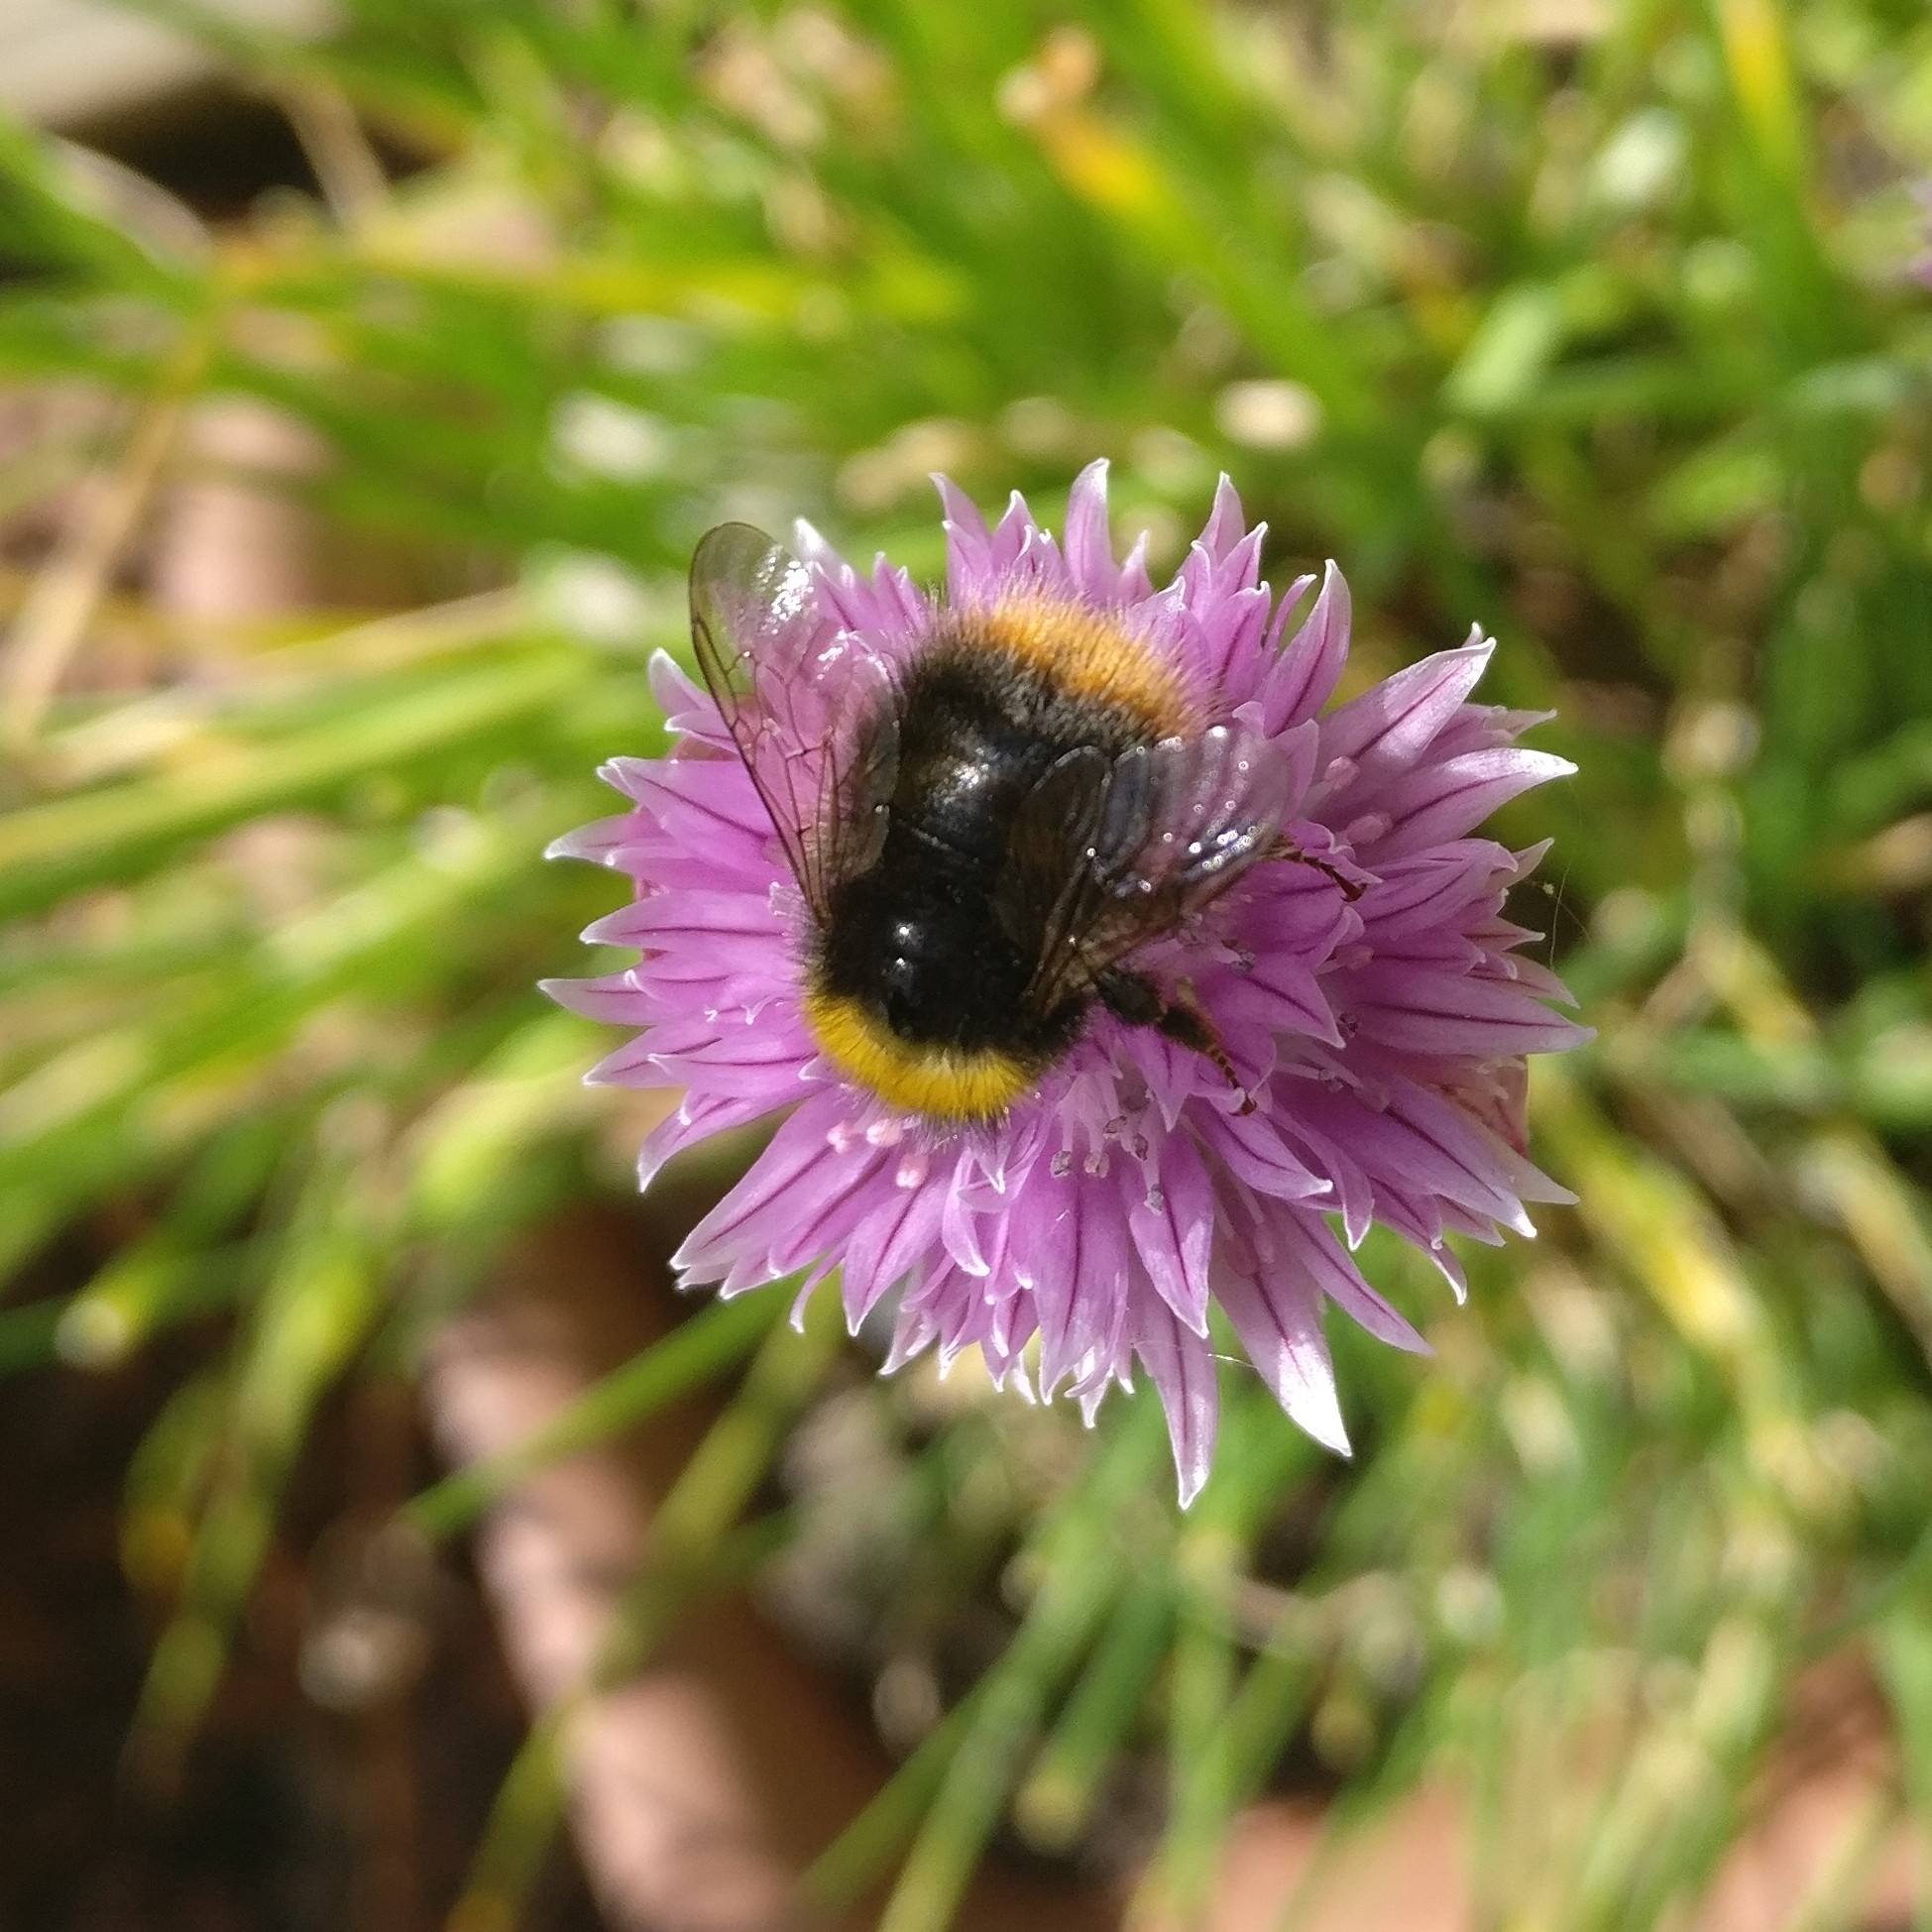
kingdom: Animalia
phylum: Arthropoda
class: Insecta
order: Hymenoptera
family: Apidae
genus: Bombus
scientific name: Bombus pratorum
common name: Early humble-bee
